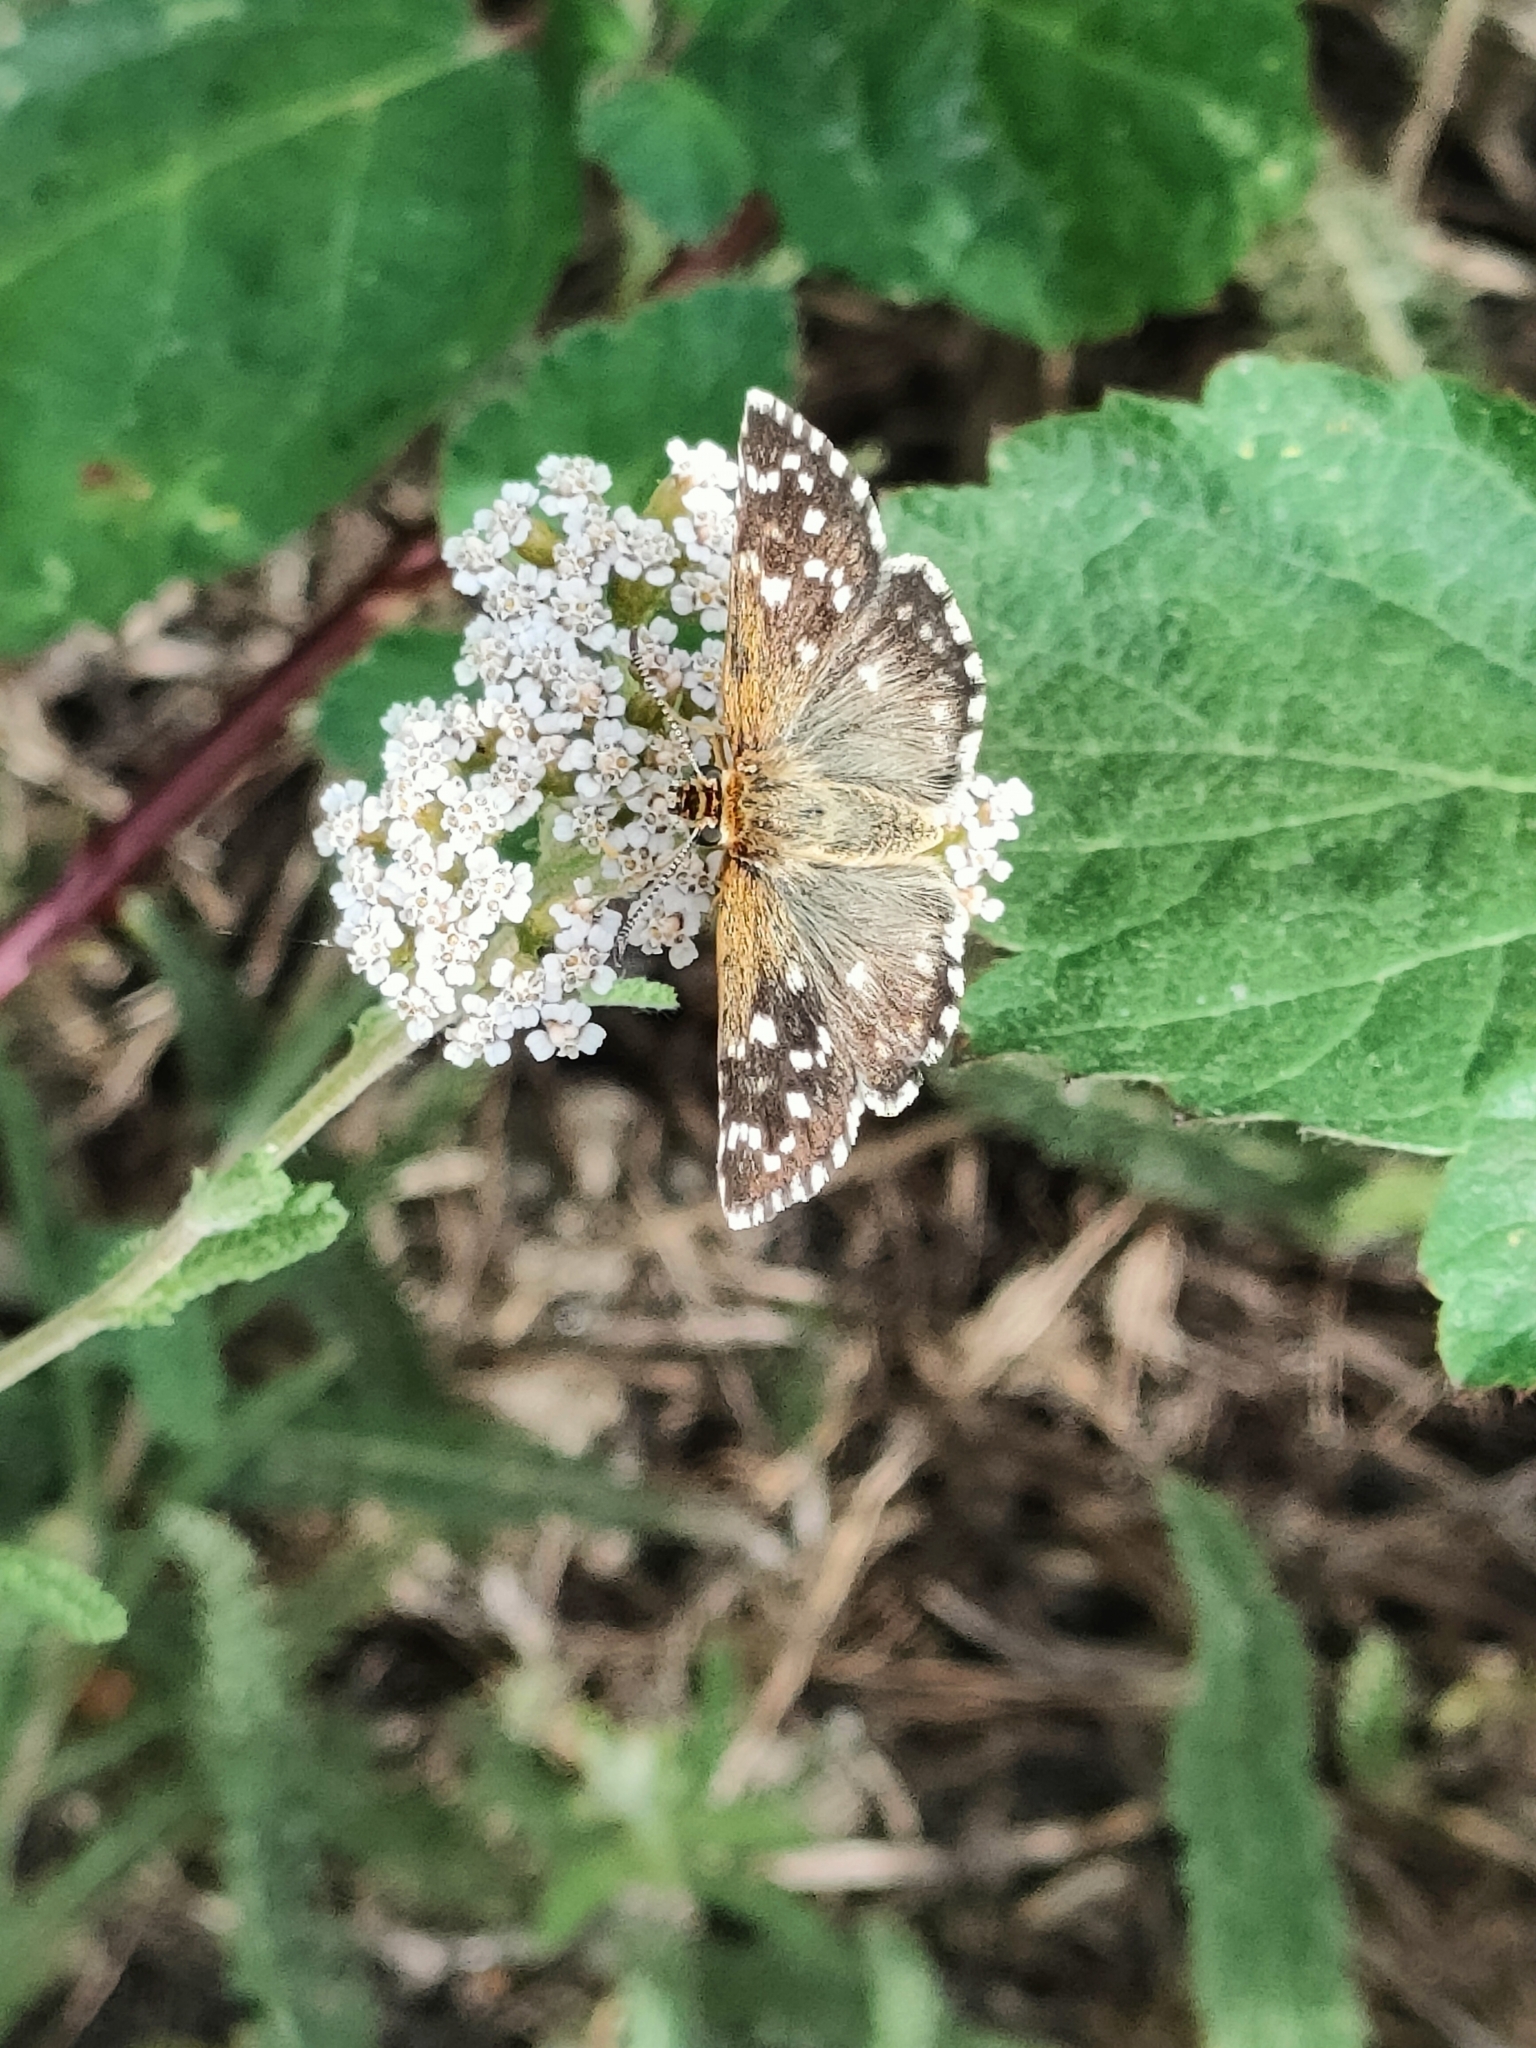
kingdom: Animalia
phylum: Arthropoda
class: Insecta
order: Lepidoptera
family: Hesperiidae
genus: Pyrgus
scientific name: Pyrgus malvoides
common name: Southern grizzled skipper
